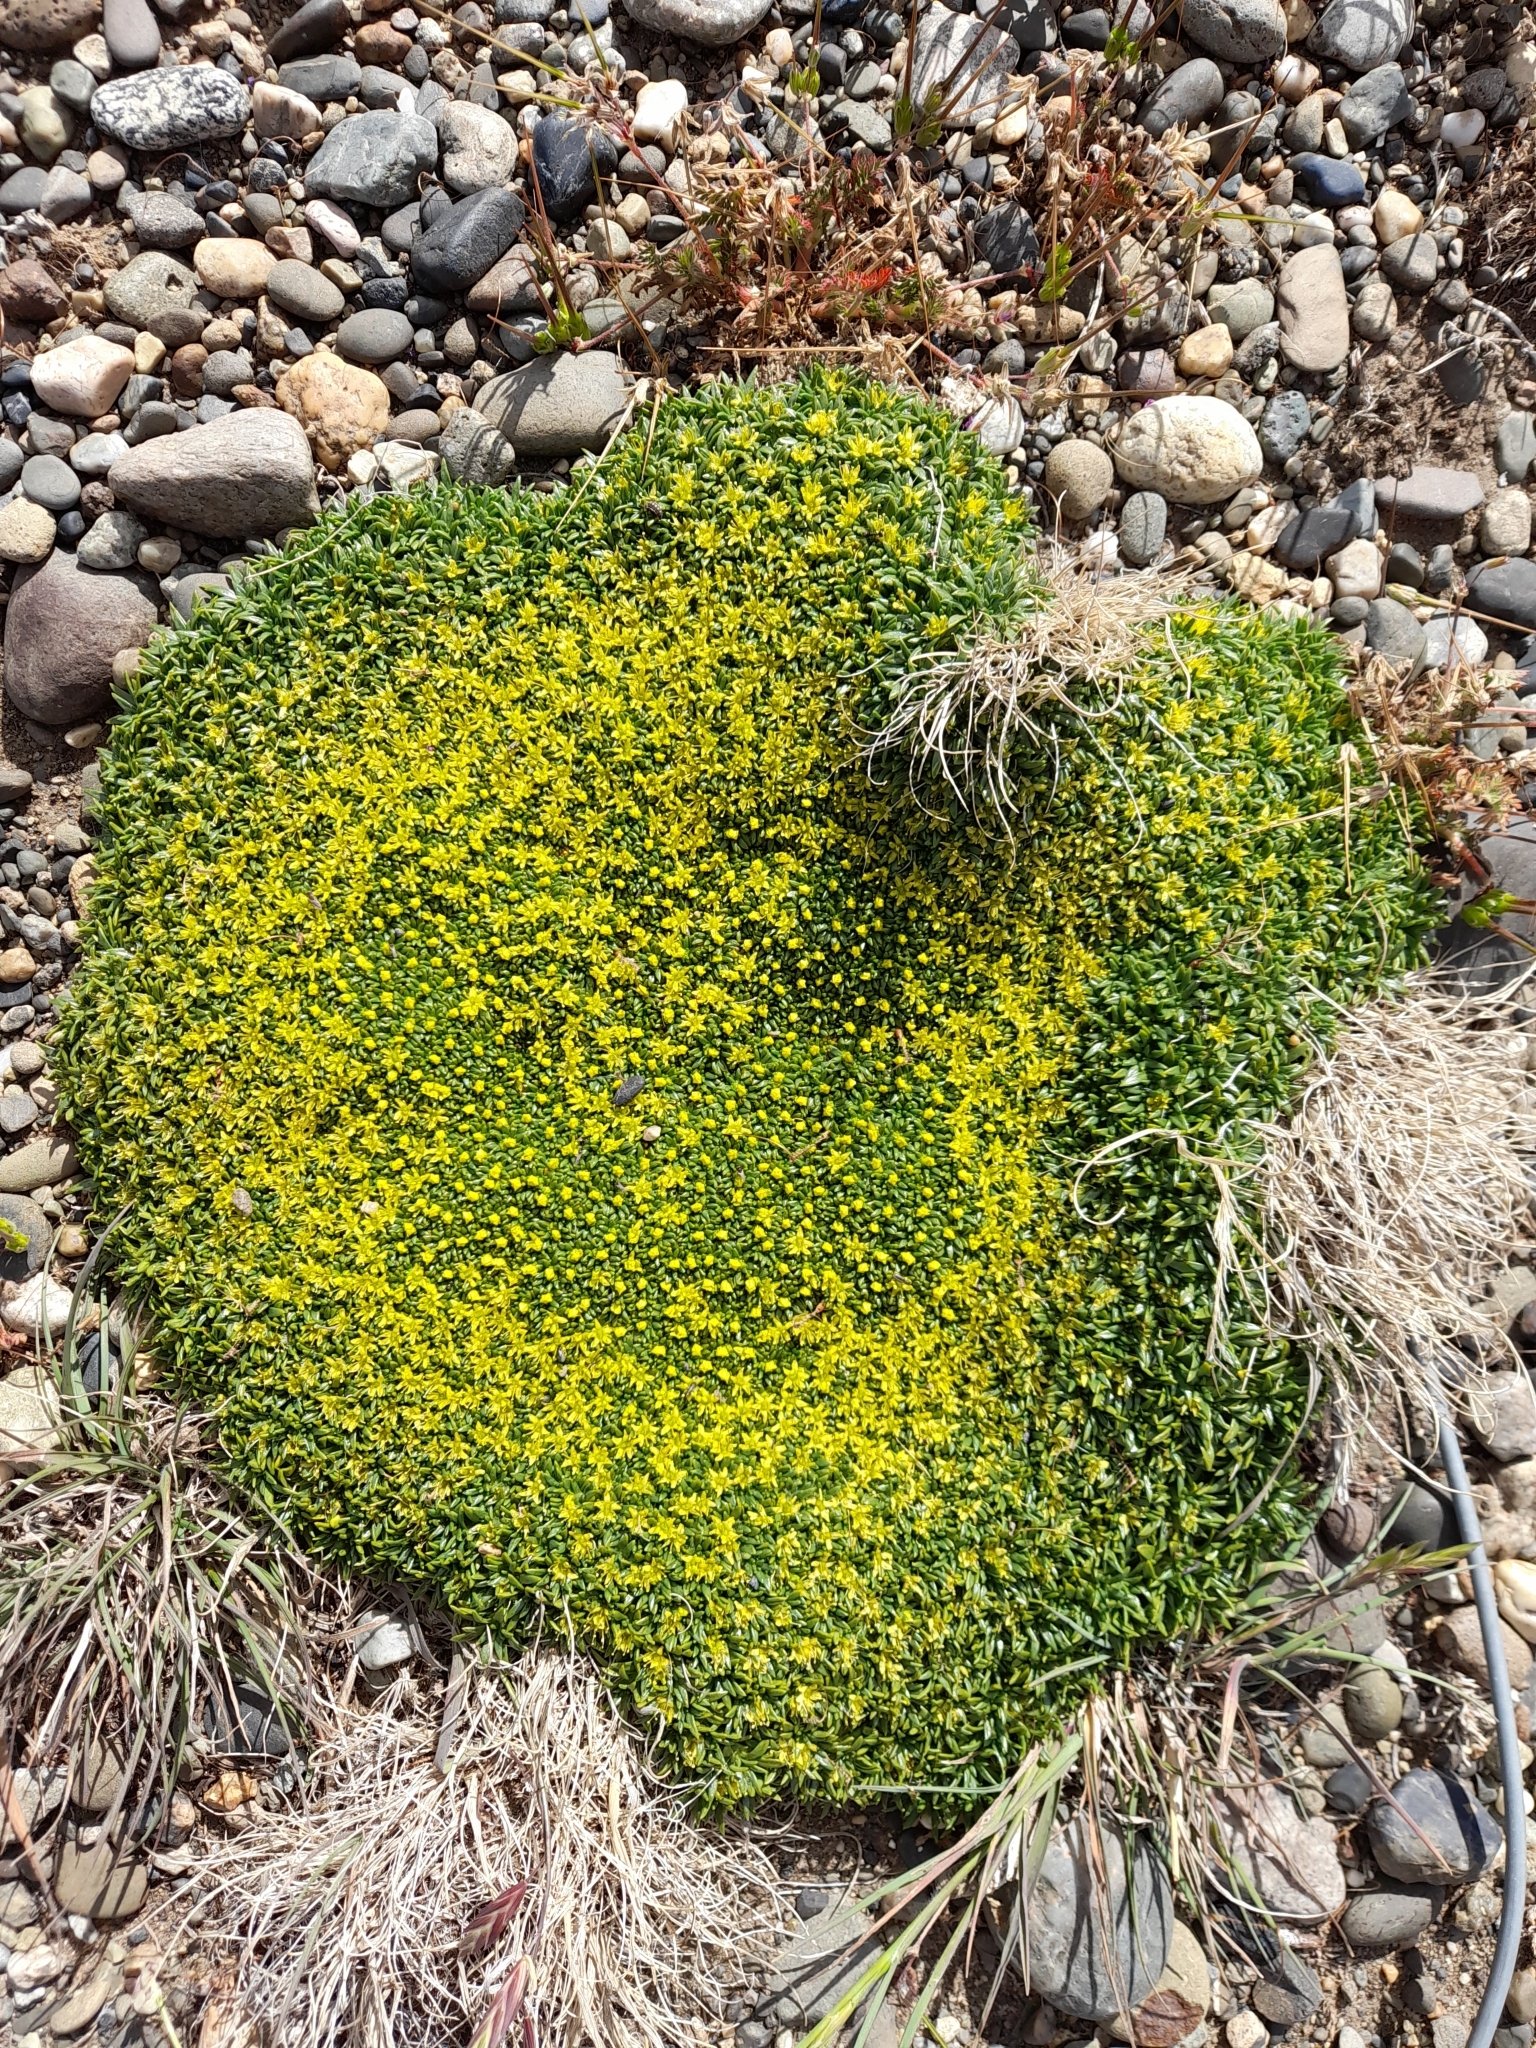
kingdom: Plantae
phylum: Tracheophyta
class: Magnoliopsida
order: Apiales
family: Apiaceae
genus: Azorella
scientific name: Azorella monantha
